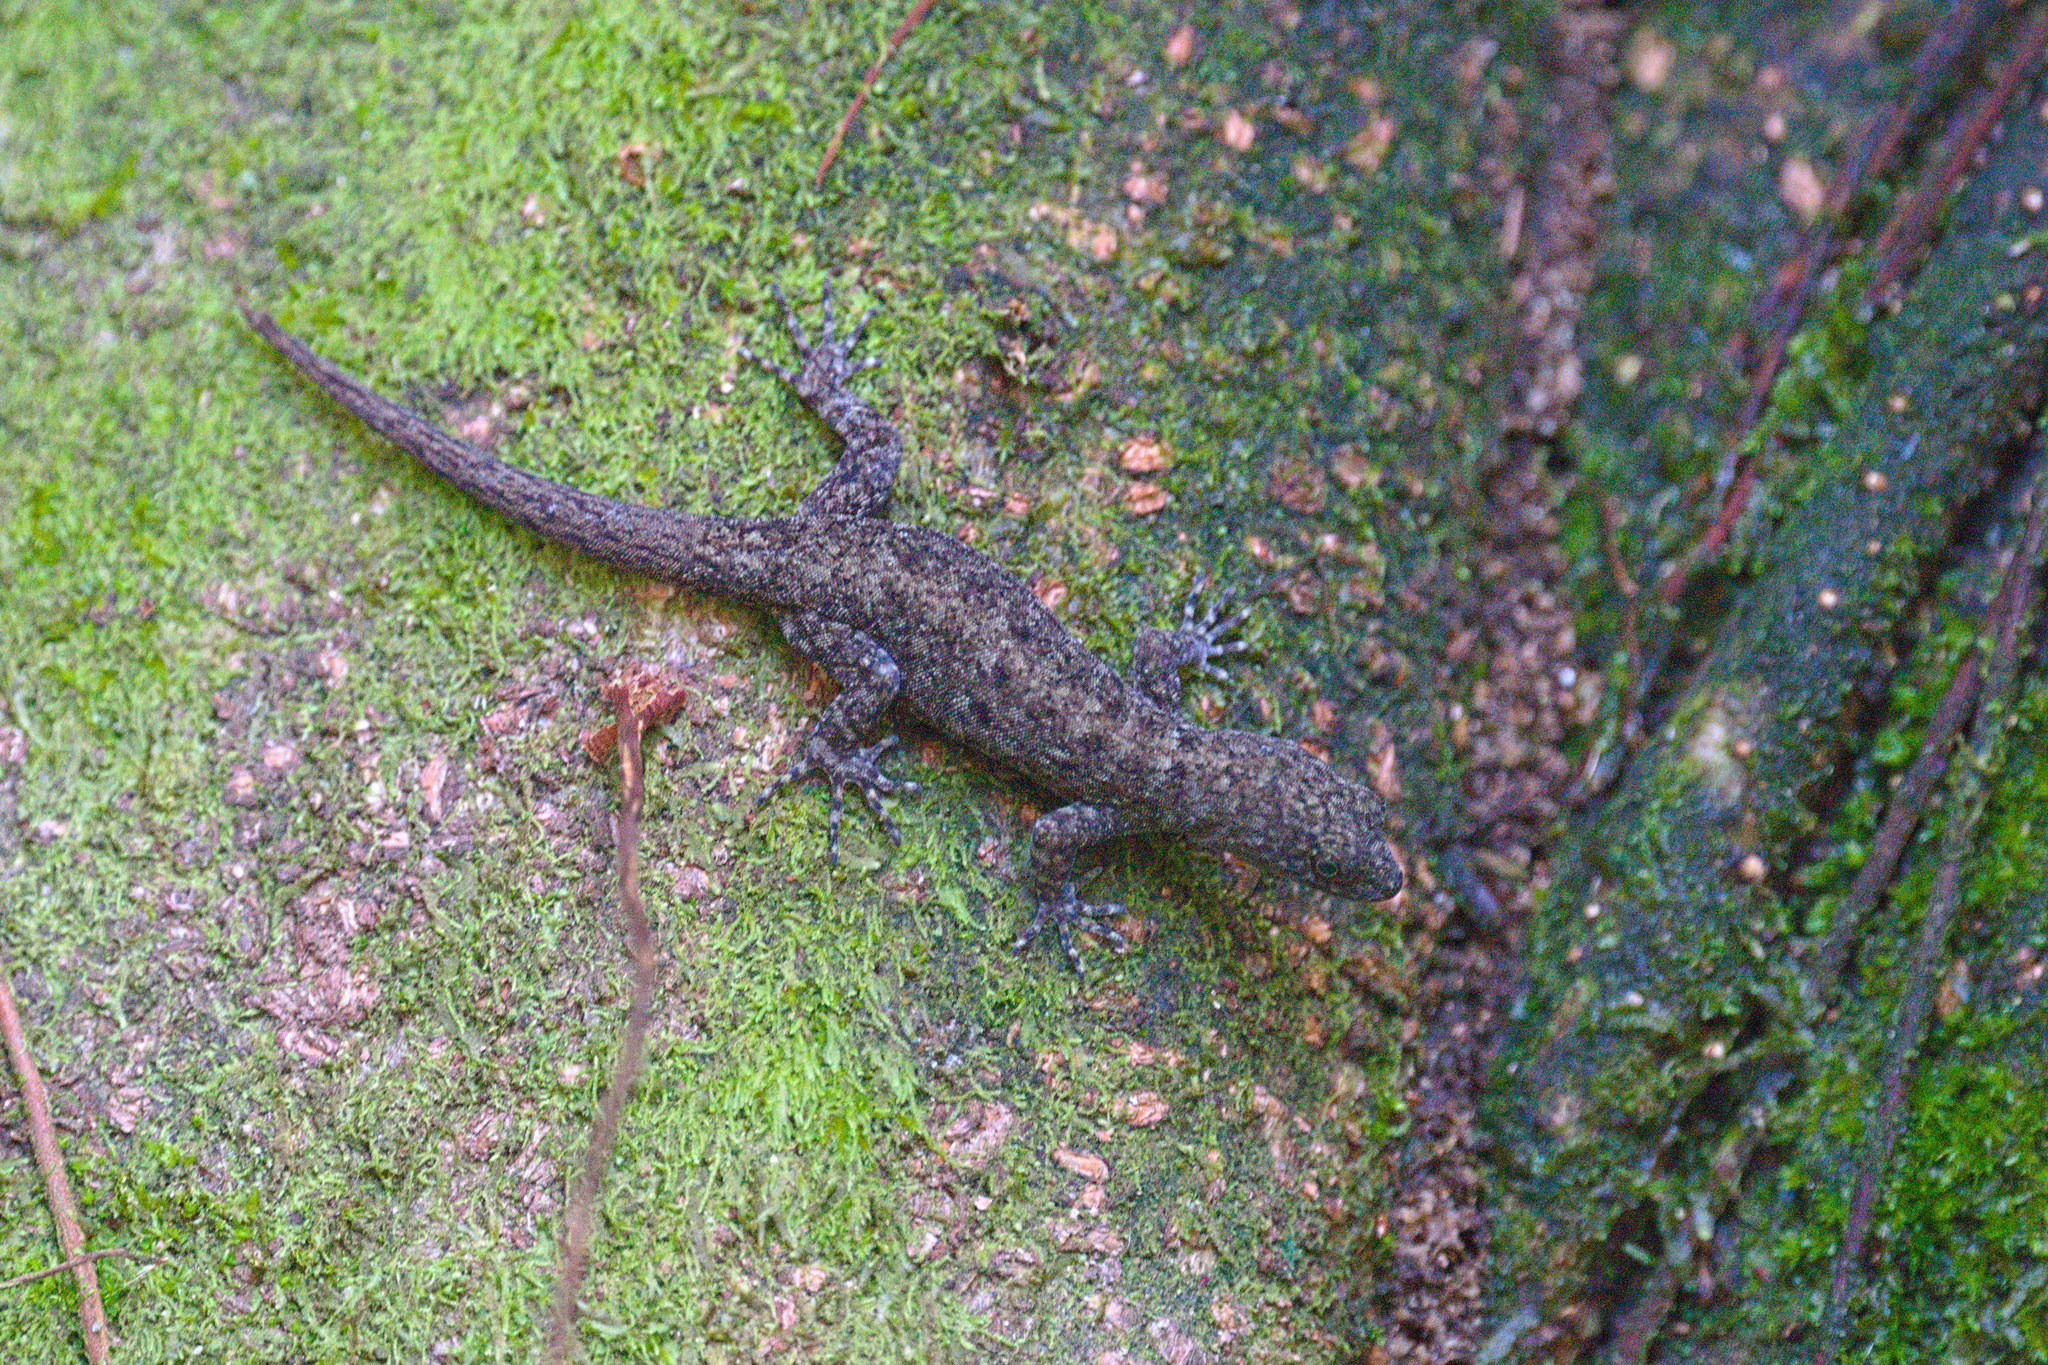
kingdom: Animalia
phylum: Chordata
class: Squamata
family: Sphaerodactylidae
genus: Gonatodes
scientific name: Gonatodes albogularis
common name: Yellow-headed gecko
